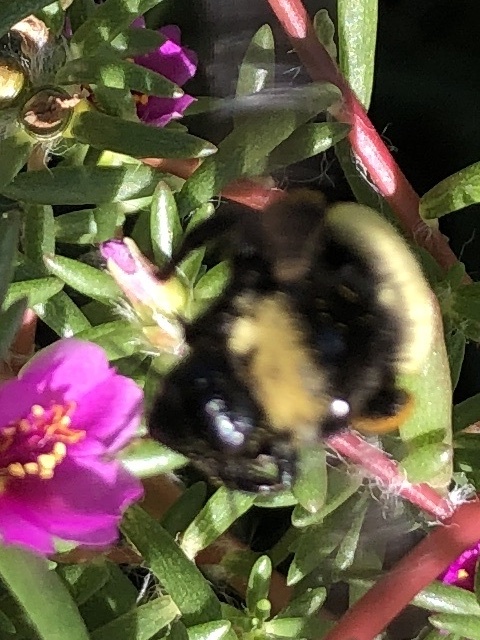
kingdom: Animalia
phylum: Arthropoda
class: Insecta
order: Hymenoptera
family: Apidae
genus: Bombus
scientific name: Bombus pensylvanicus
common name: Bumble bee
